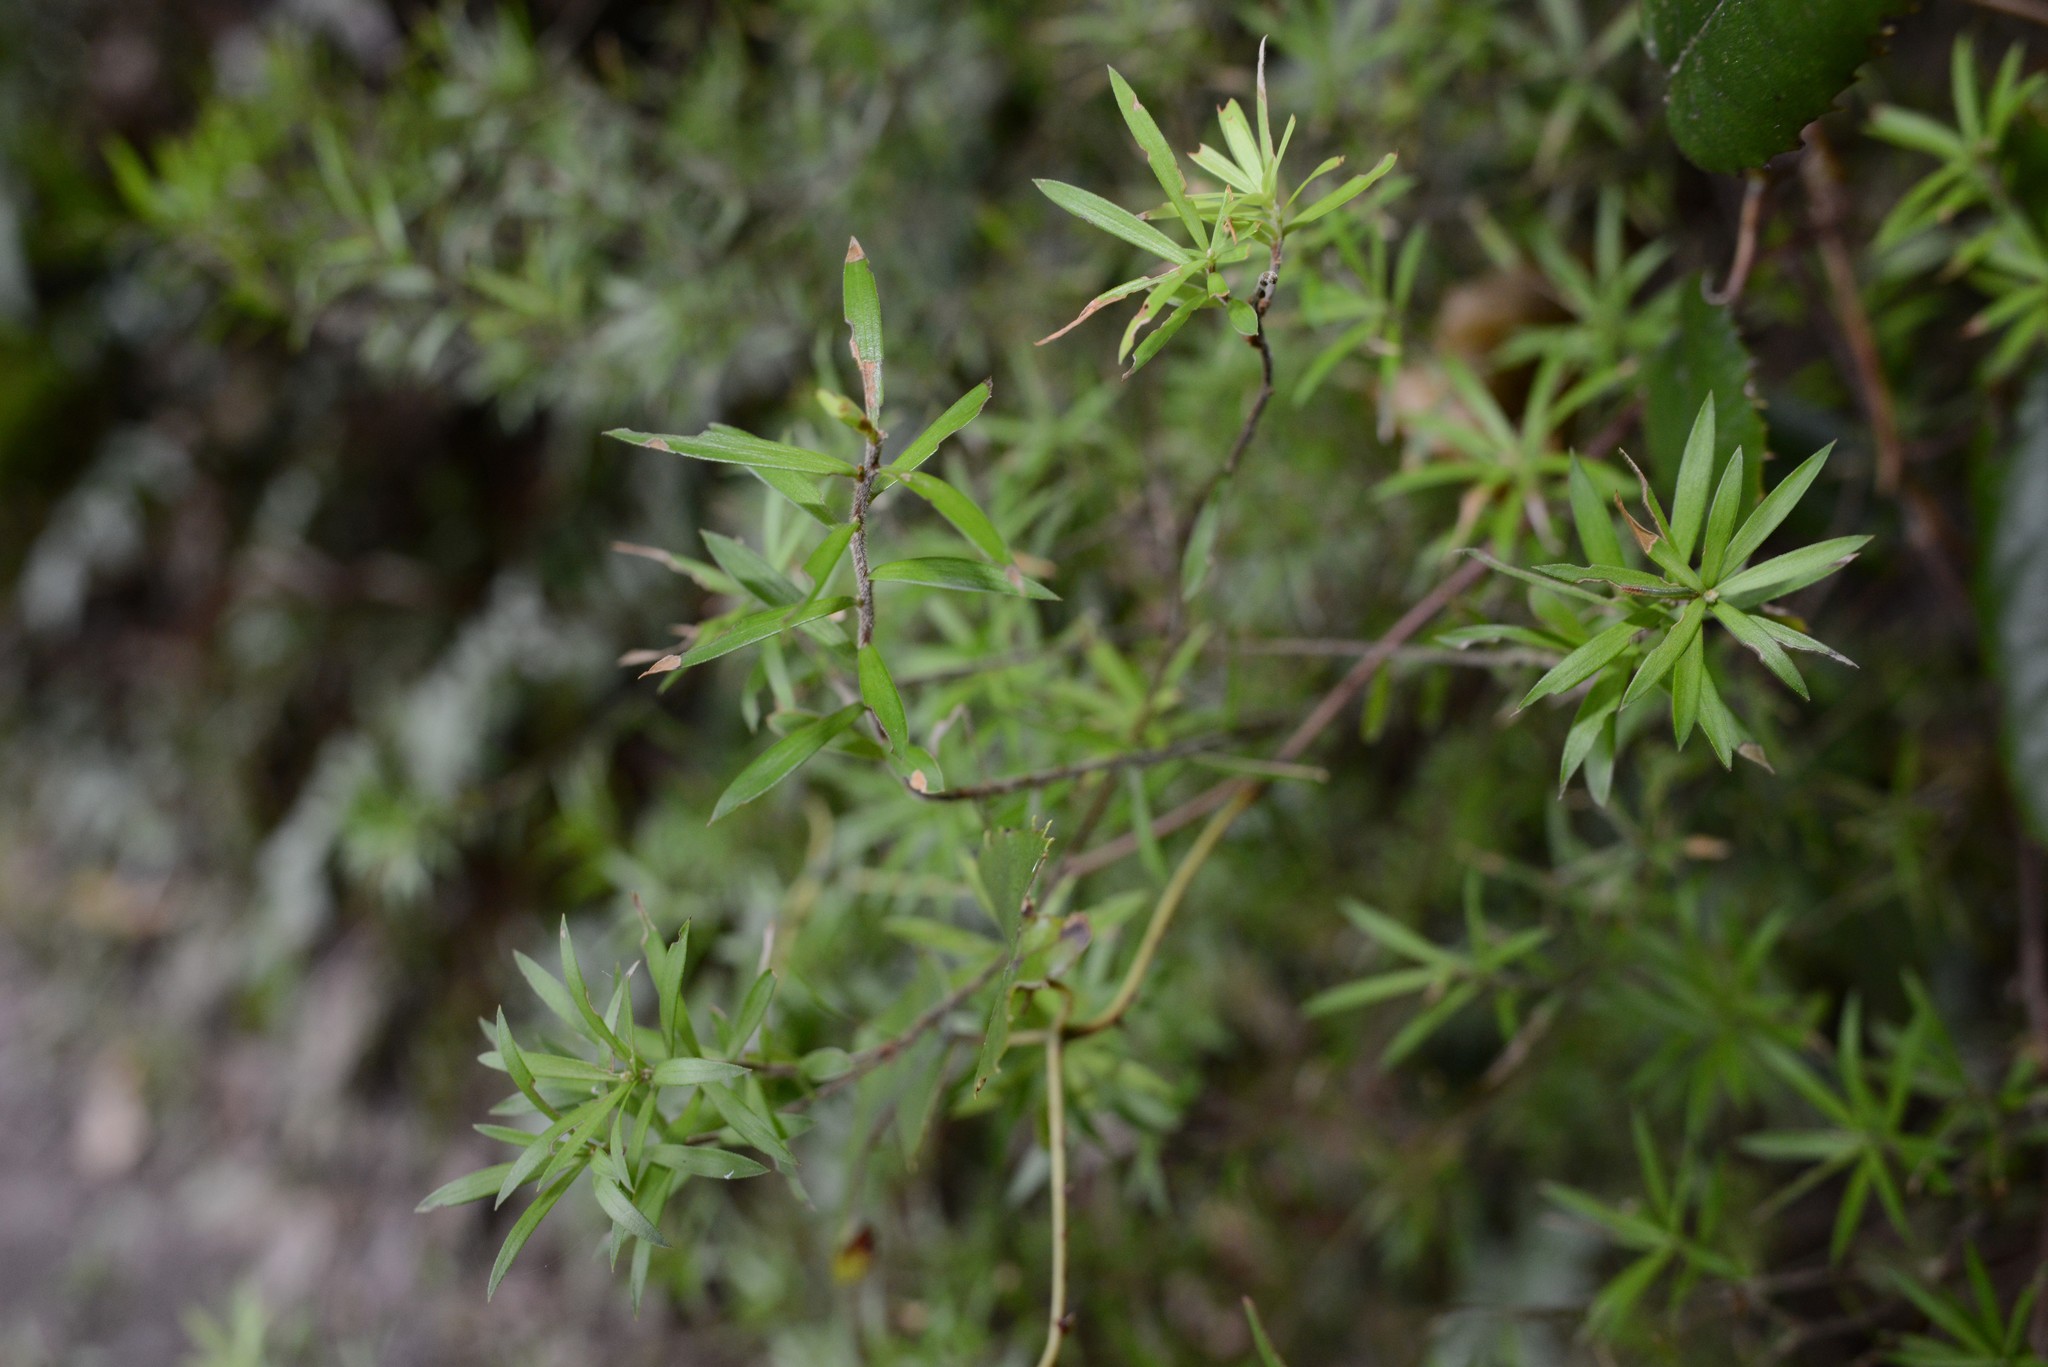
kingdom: Plantae
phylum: Tracheophyta
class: Magnoliopsida
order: Ericales
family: Ericaceae
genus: Leucopogon
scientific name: Leucopogon fasciculatus
